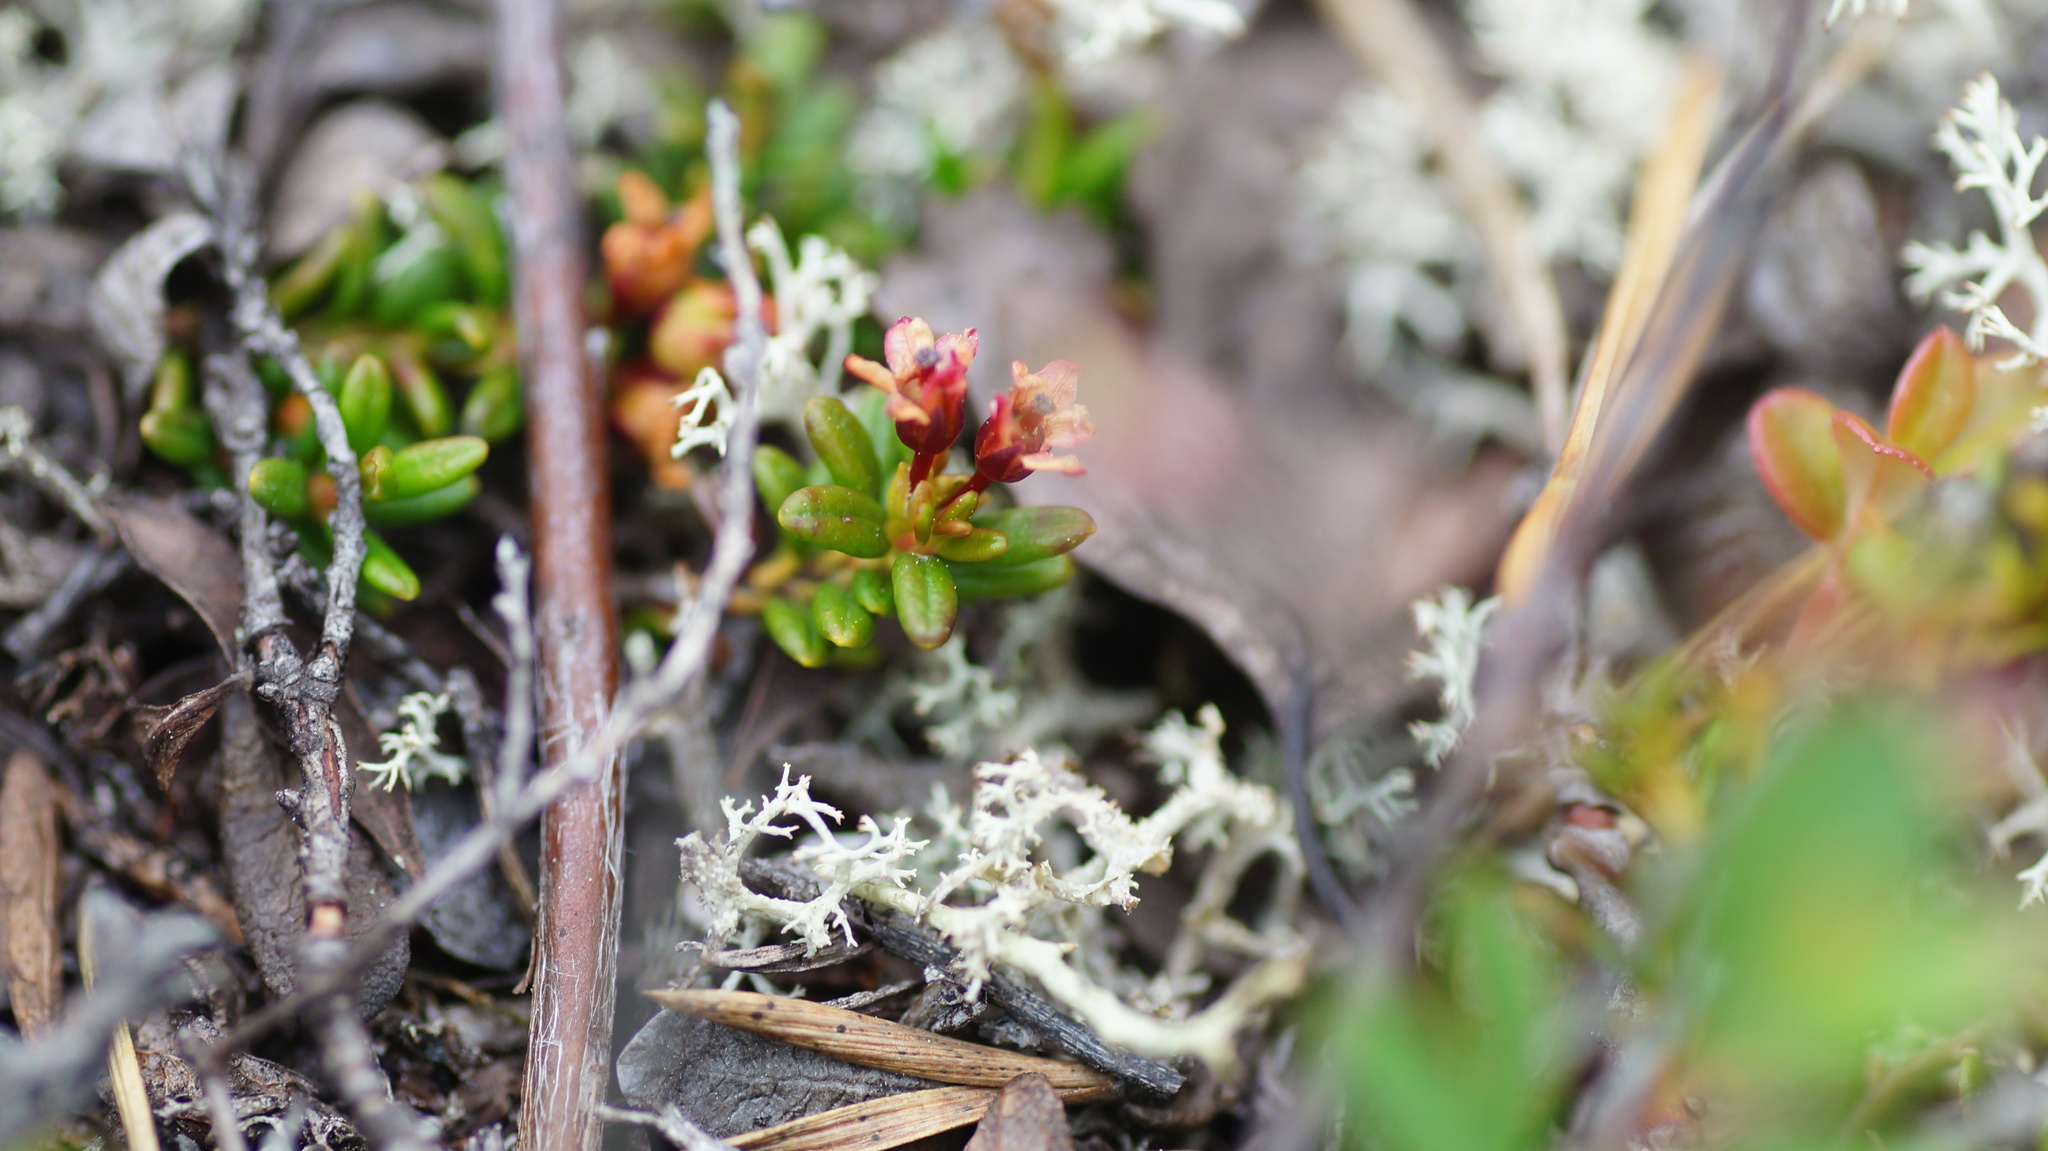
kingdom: Plantae
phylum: Tracheophyta
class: Magnoliopsida
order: Ericales
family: Ericaceae
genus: Kalmia
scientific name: Kalmia procumbens
